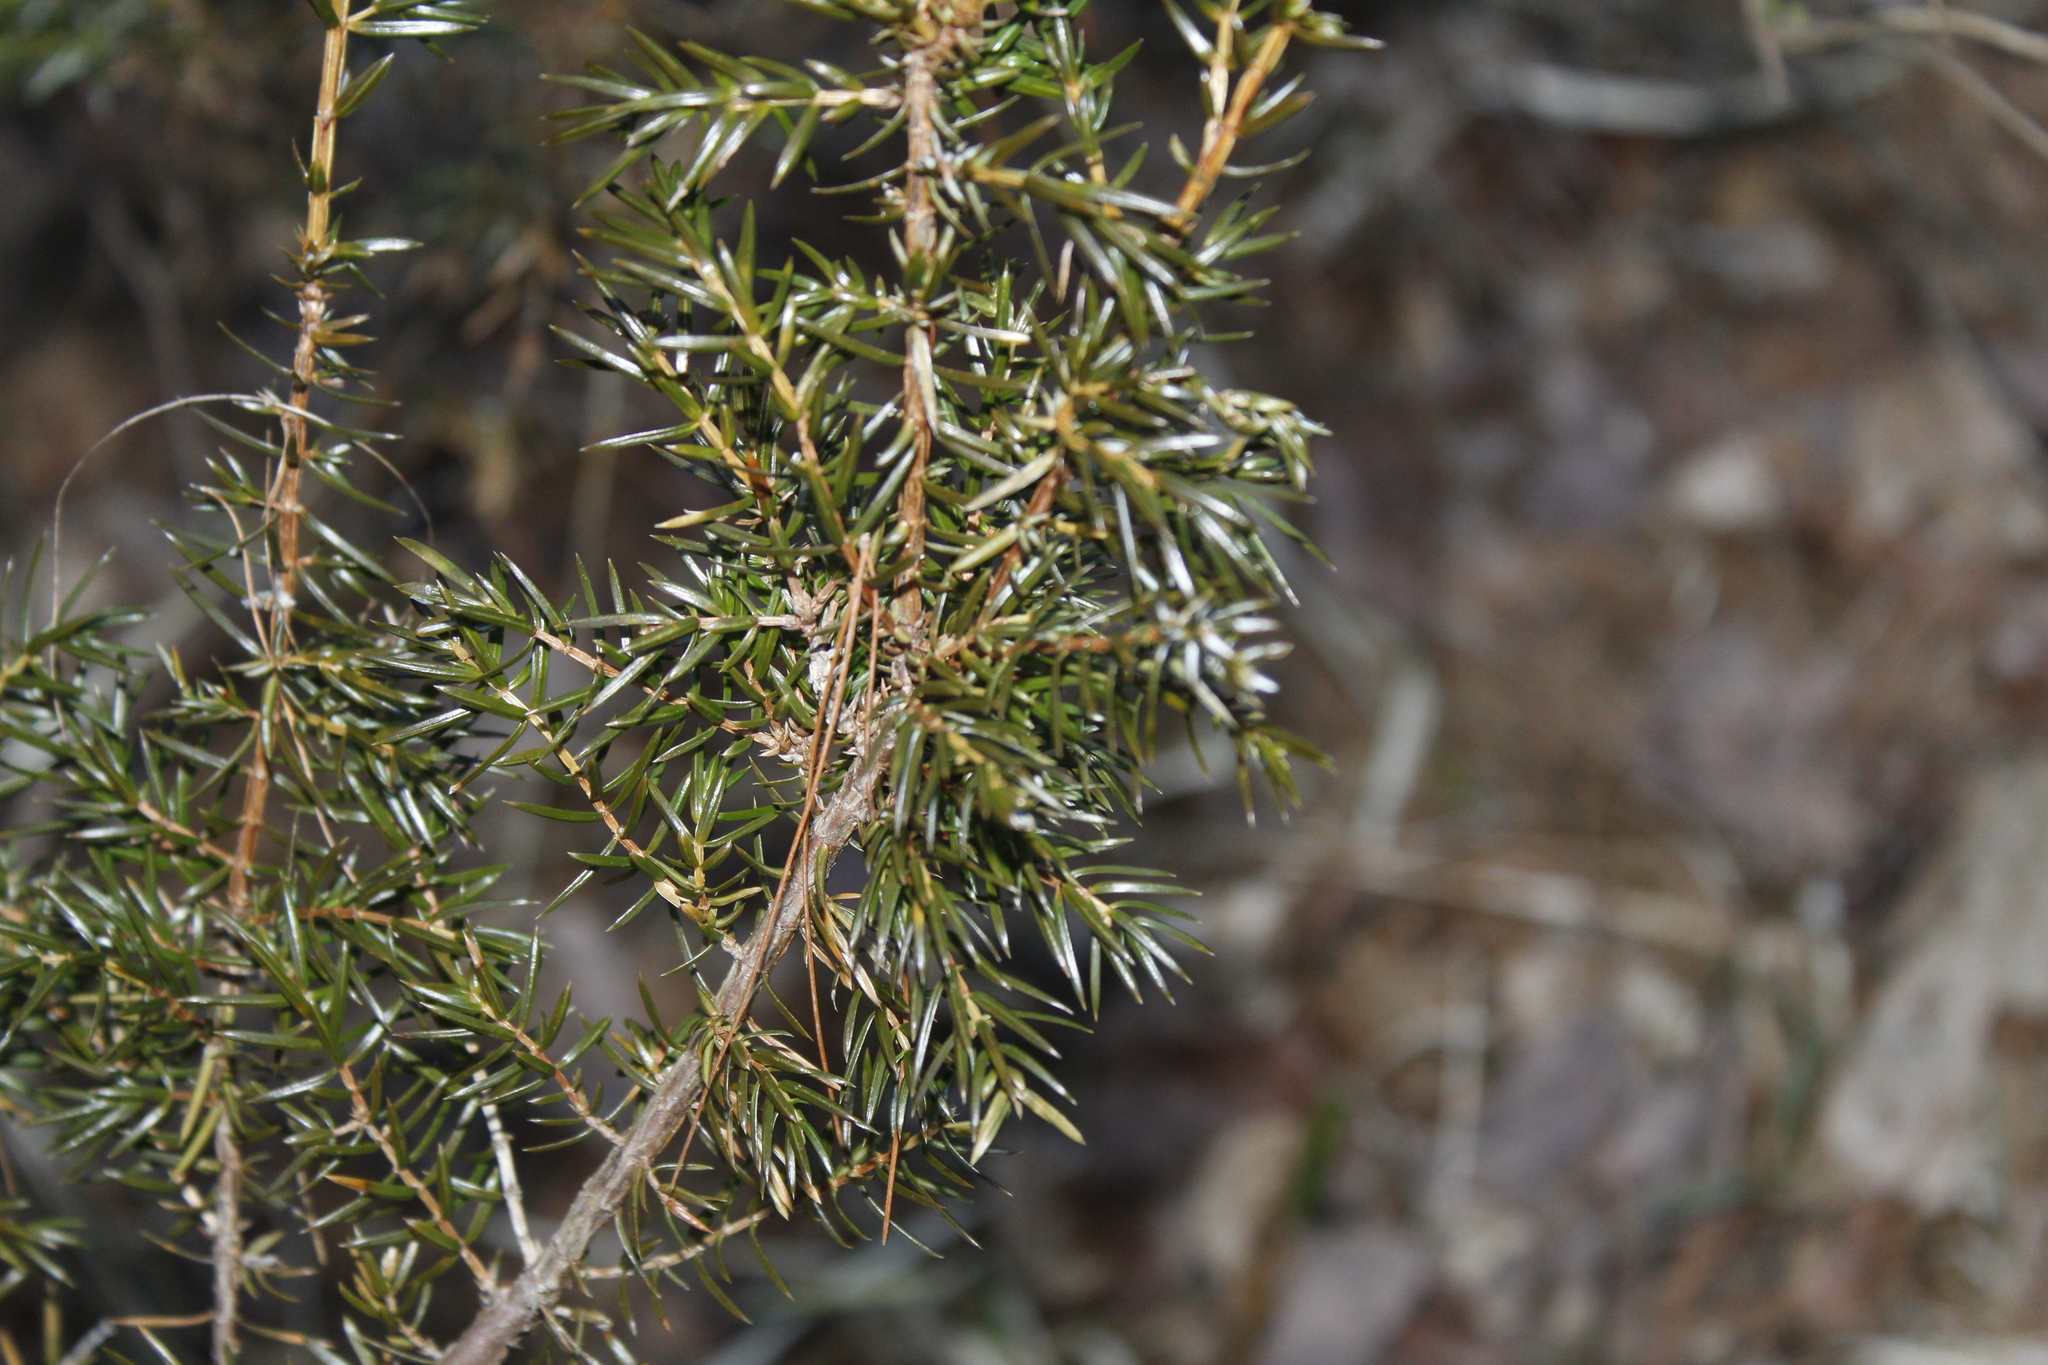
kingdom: Plantae
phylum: Tracheophyta
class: Pinopsida
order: Pinales
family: Cupressaceae
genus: Juniperus
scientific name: Juniperus communis
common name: Common juniper
